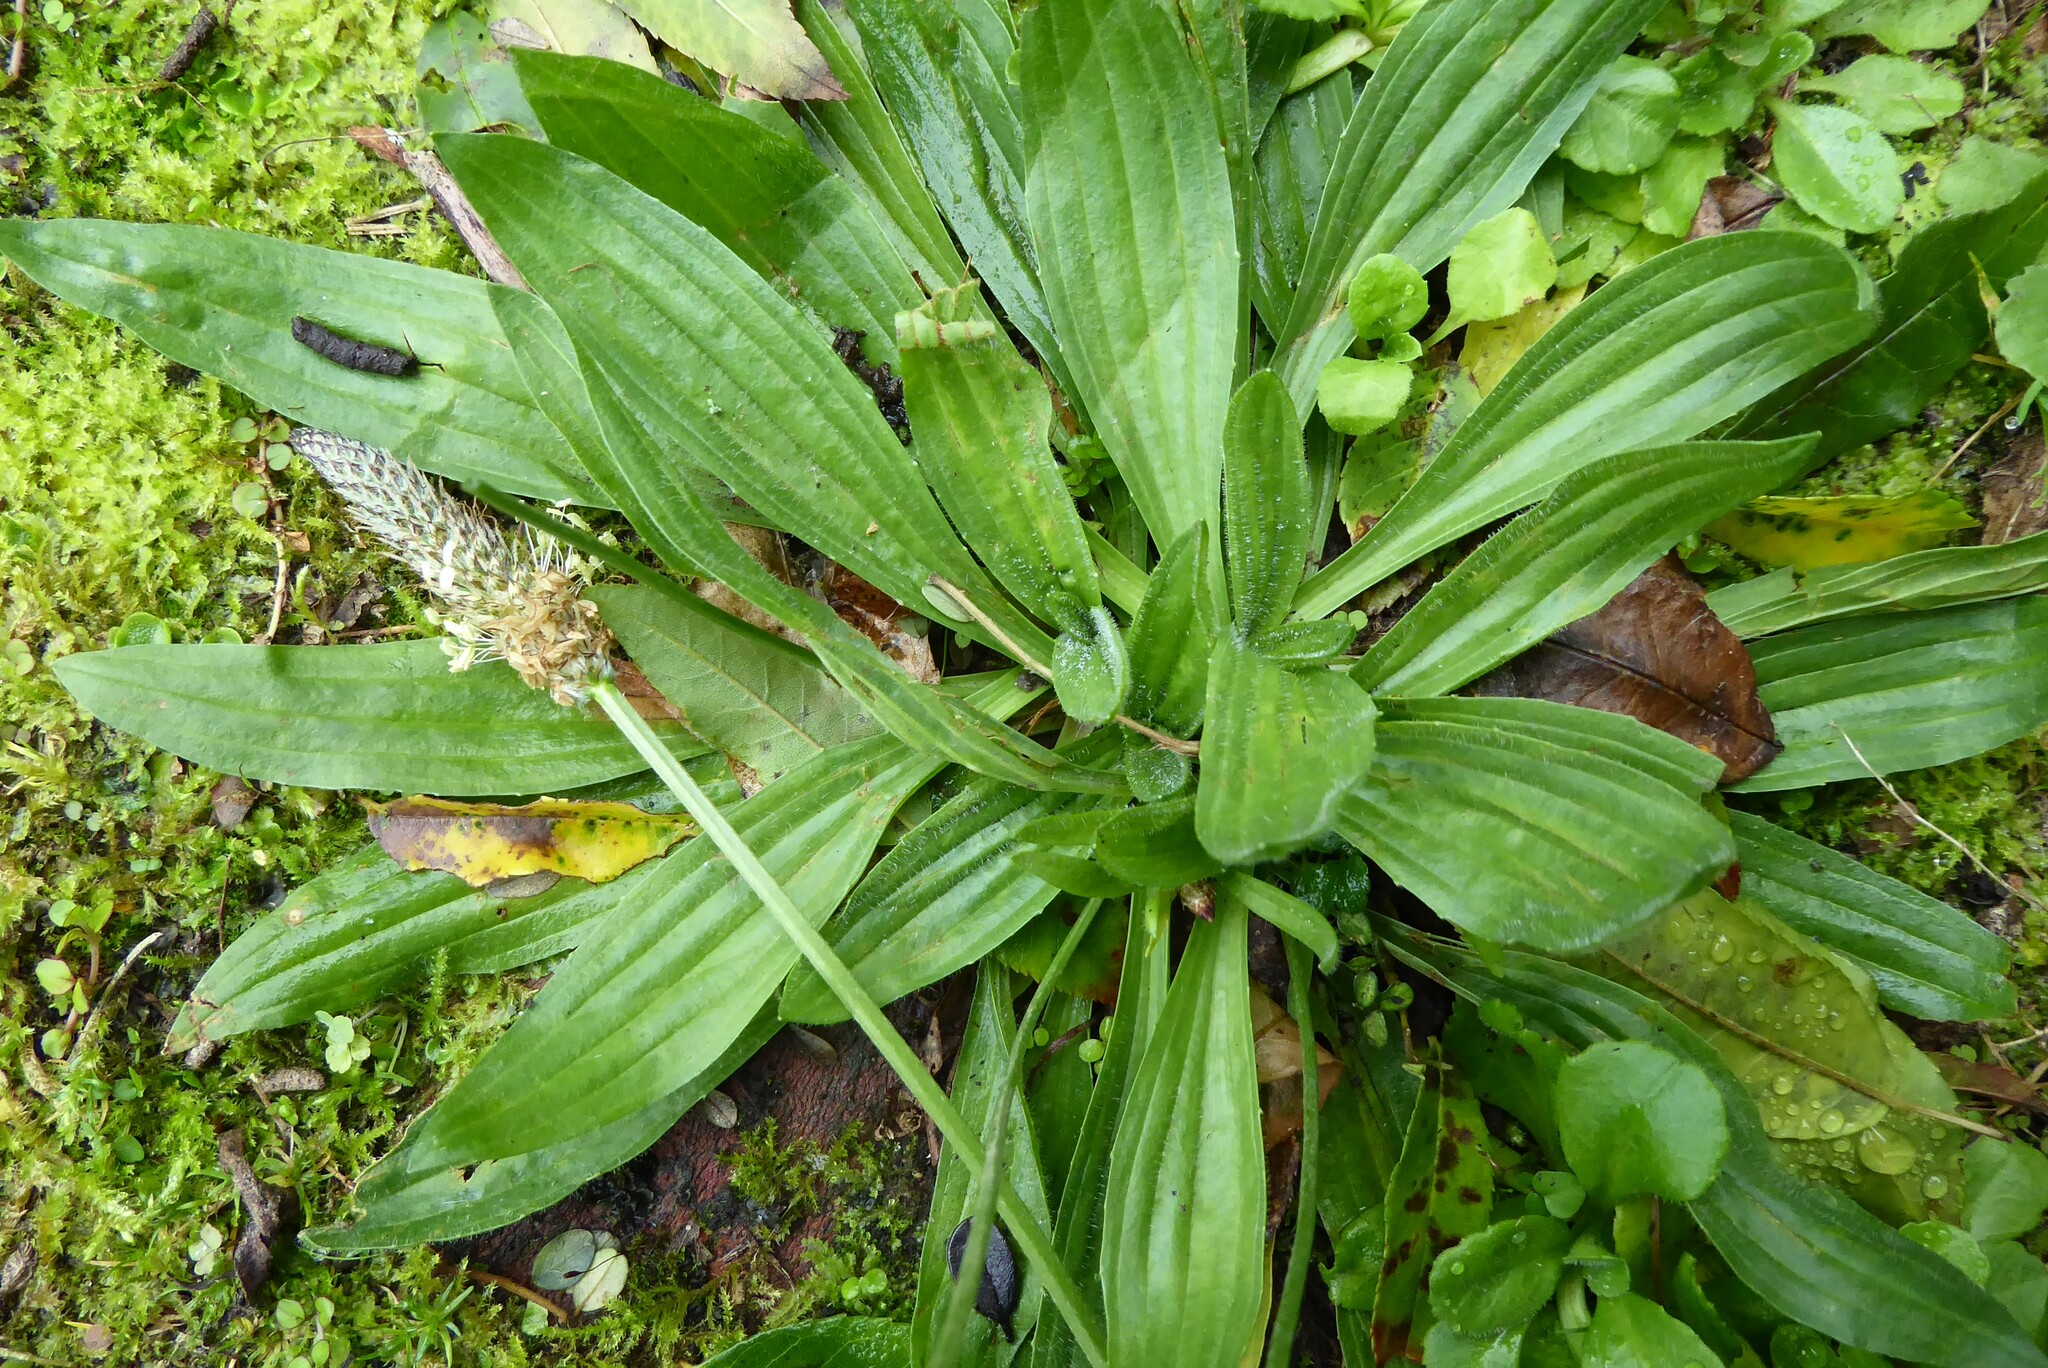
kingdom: Plantae
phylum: Tracheophyta
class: Magnoliopsida
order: Lamiales
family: Plantaginaceae
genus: Plantago
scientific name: Plantago lanceolata
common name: Ribwort plantain
